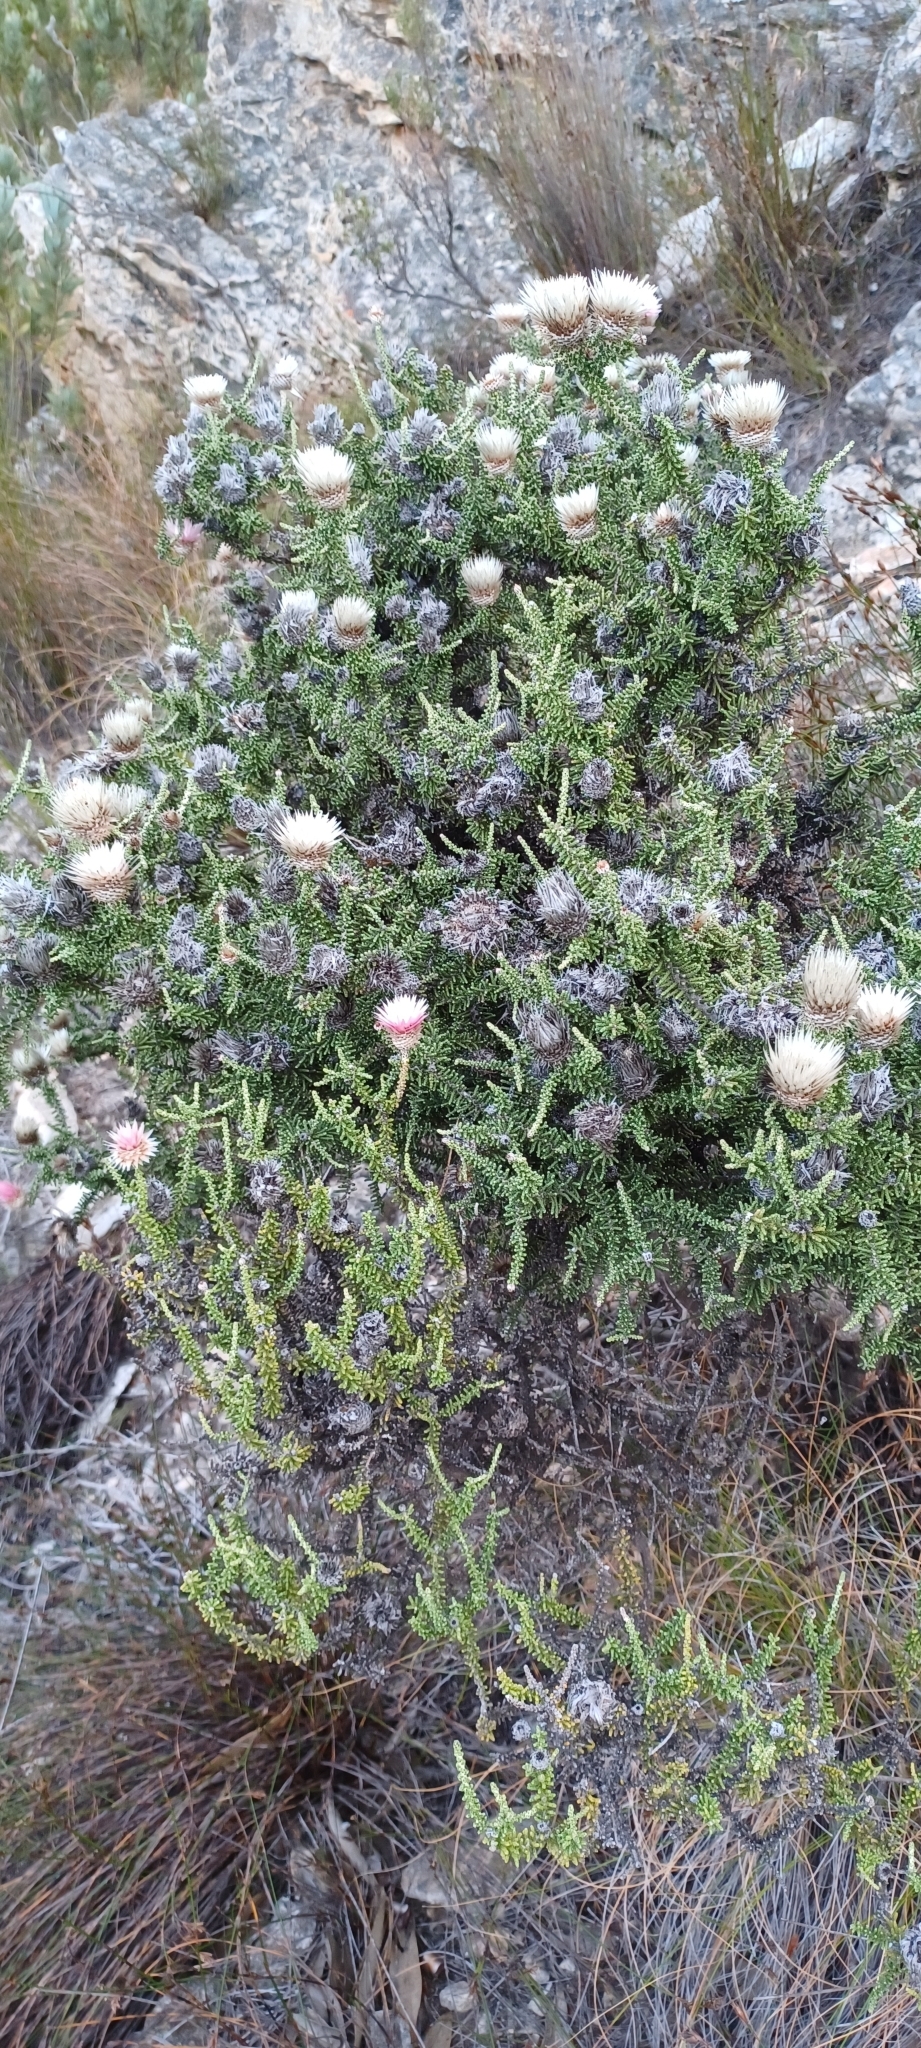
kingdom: Plantae
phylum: Tracheophyta
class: Magnoliopsida
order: Asterales
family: Asteraceae
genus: Phaenocoma
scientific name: Phaenocoma prolifera
